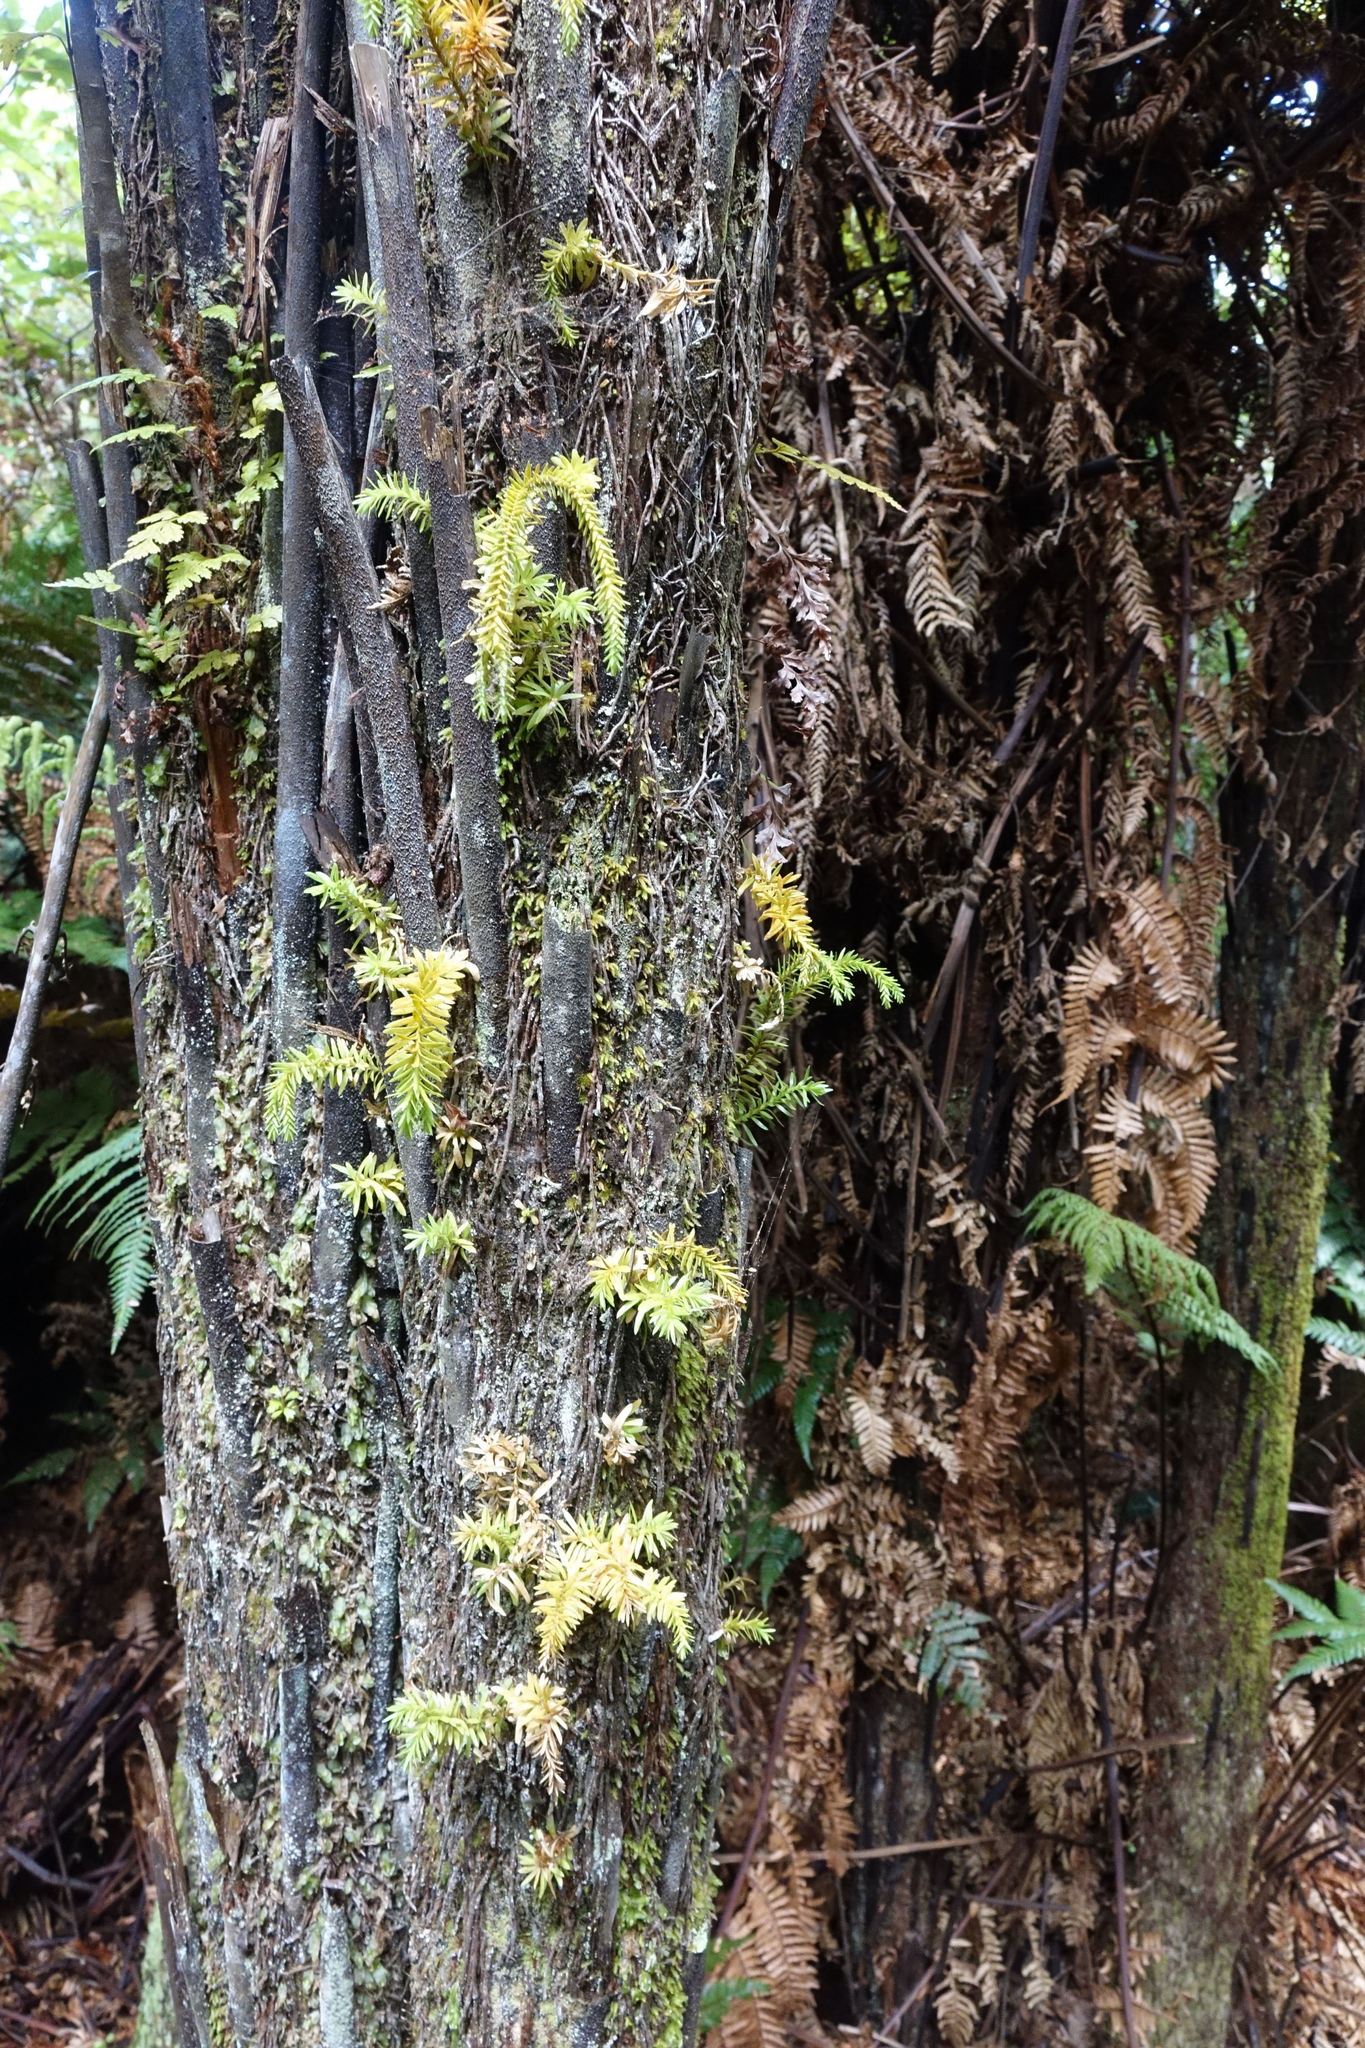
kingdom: Plantae
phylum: Tracheophyta
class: Lycopodiopsida
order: Lycopodiales
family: Lycopodiaceae
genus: Phlegmariurus
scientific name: Phlegmariurus varius
